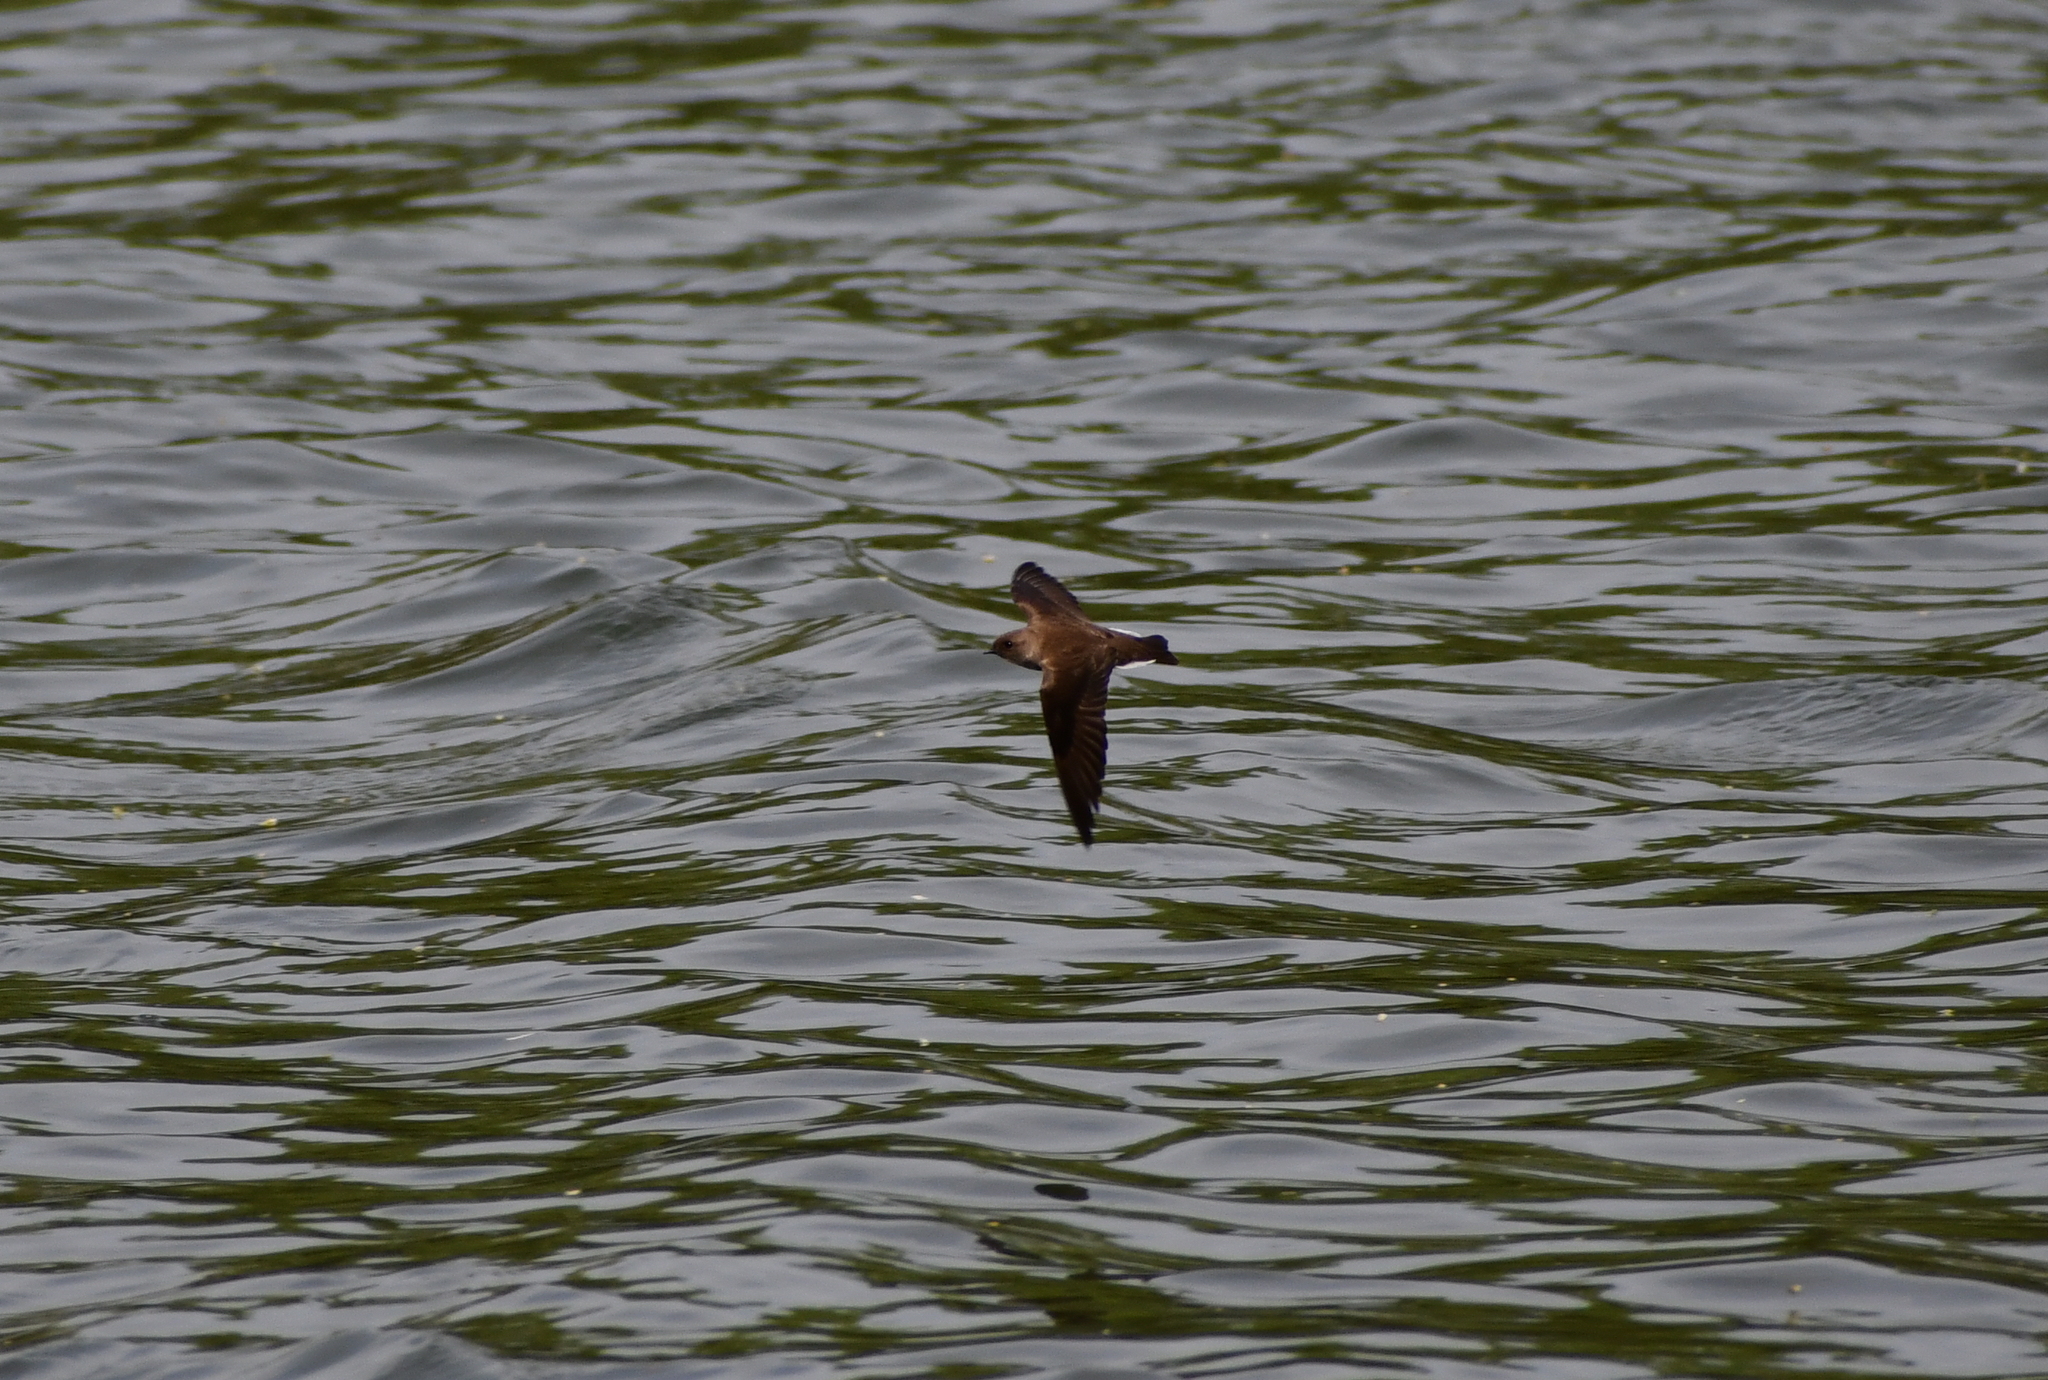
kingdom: Animalia
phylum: Chordata
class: Aves
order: Passeriformes
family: Hirundinidae
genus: Stelgidopteryx
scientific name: Stelgidopteryx serripennis
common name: Northern rough-winged swallow
